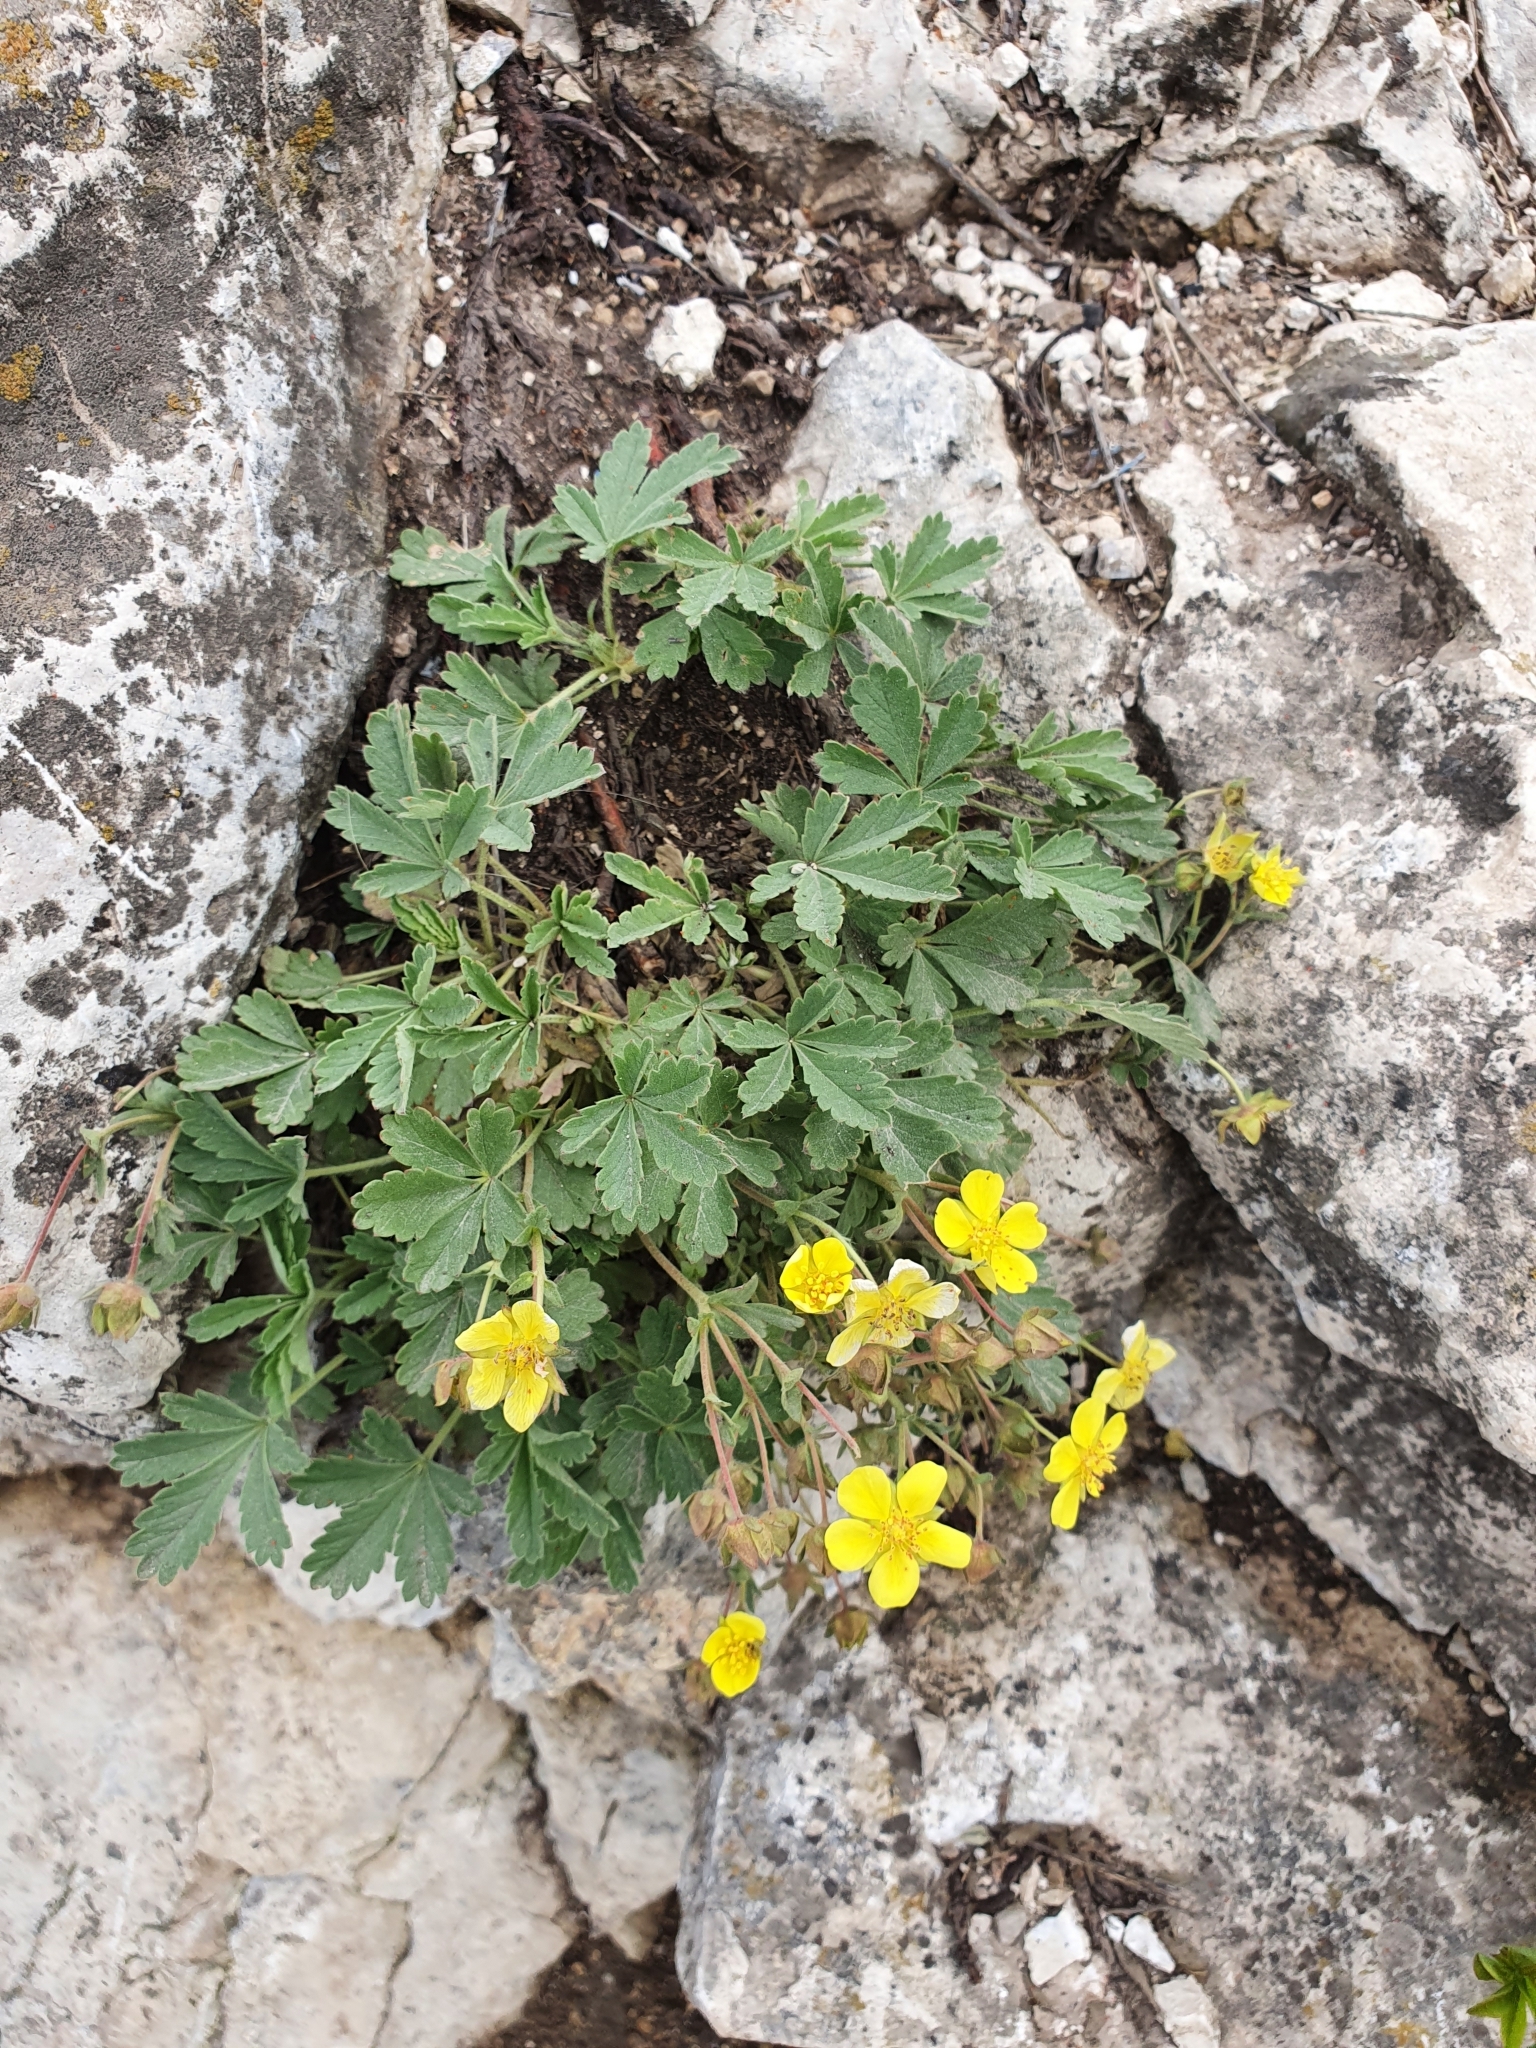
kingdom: Plantae
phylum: Tracheophyta
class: Magnoliopsida
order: Rosales
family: Rosaceae
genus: Potentilla
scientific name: Potentilla incana
